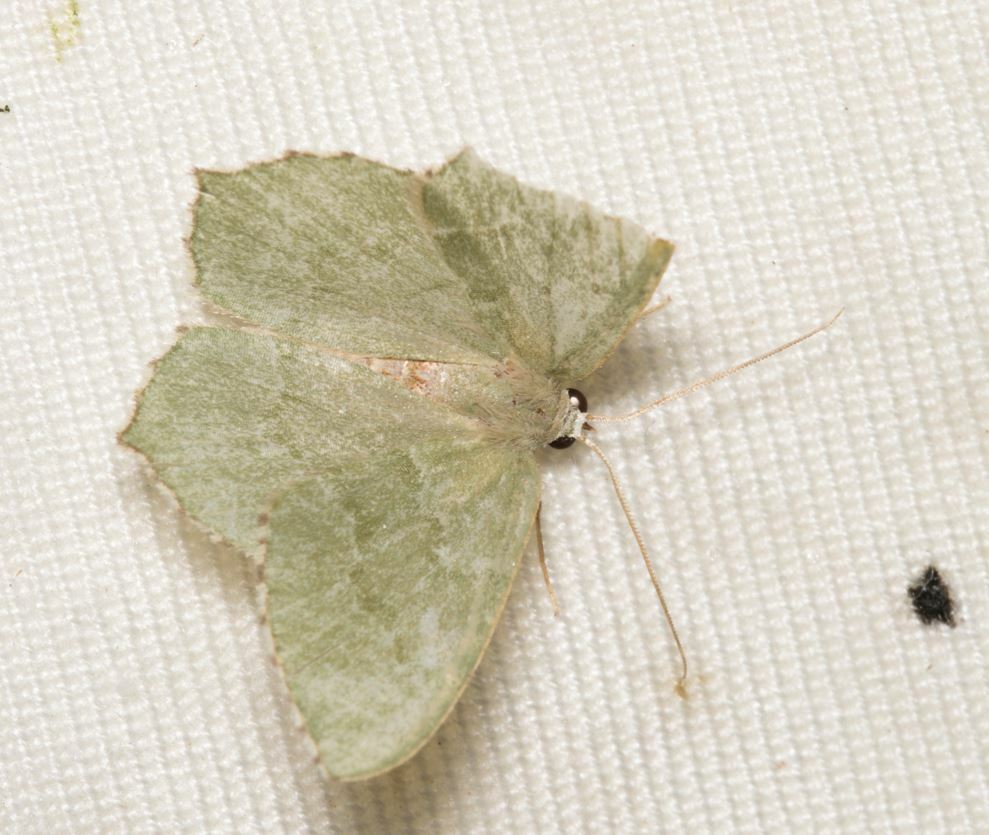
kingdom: Animalia
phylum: Arthropoda
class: Insecta
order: Lepidoptera
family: Geometridae
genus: Hemithea
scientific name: Hemithea aestivaria
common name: Common emerald
